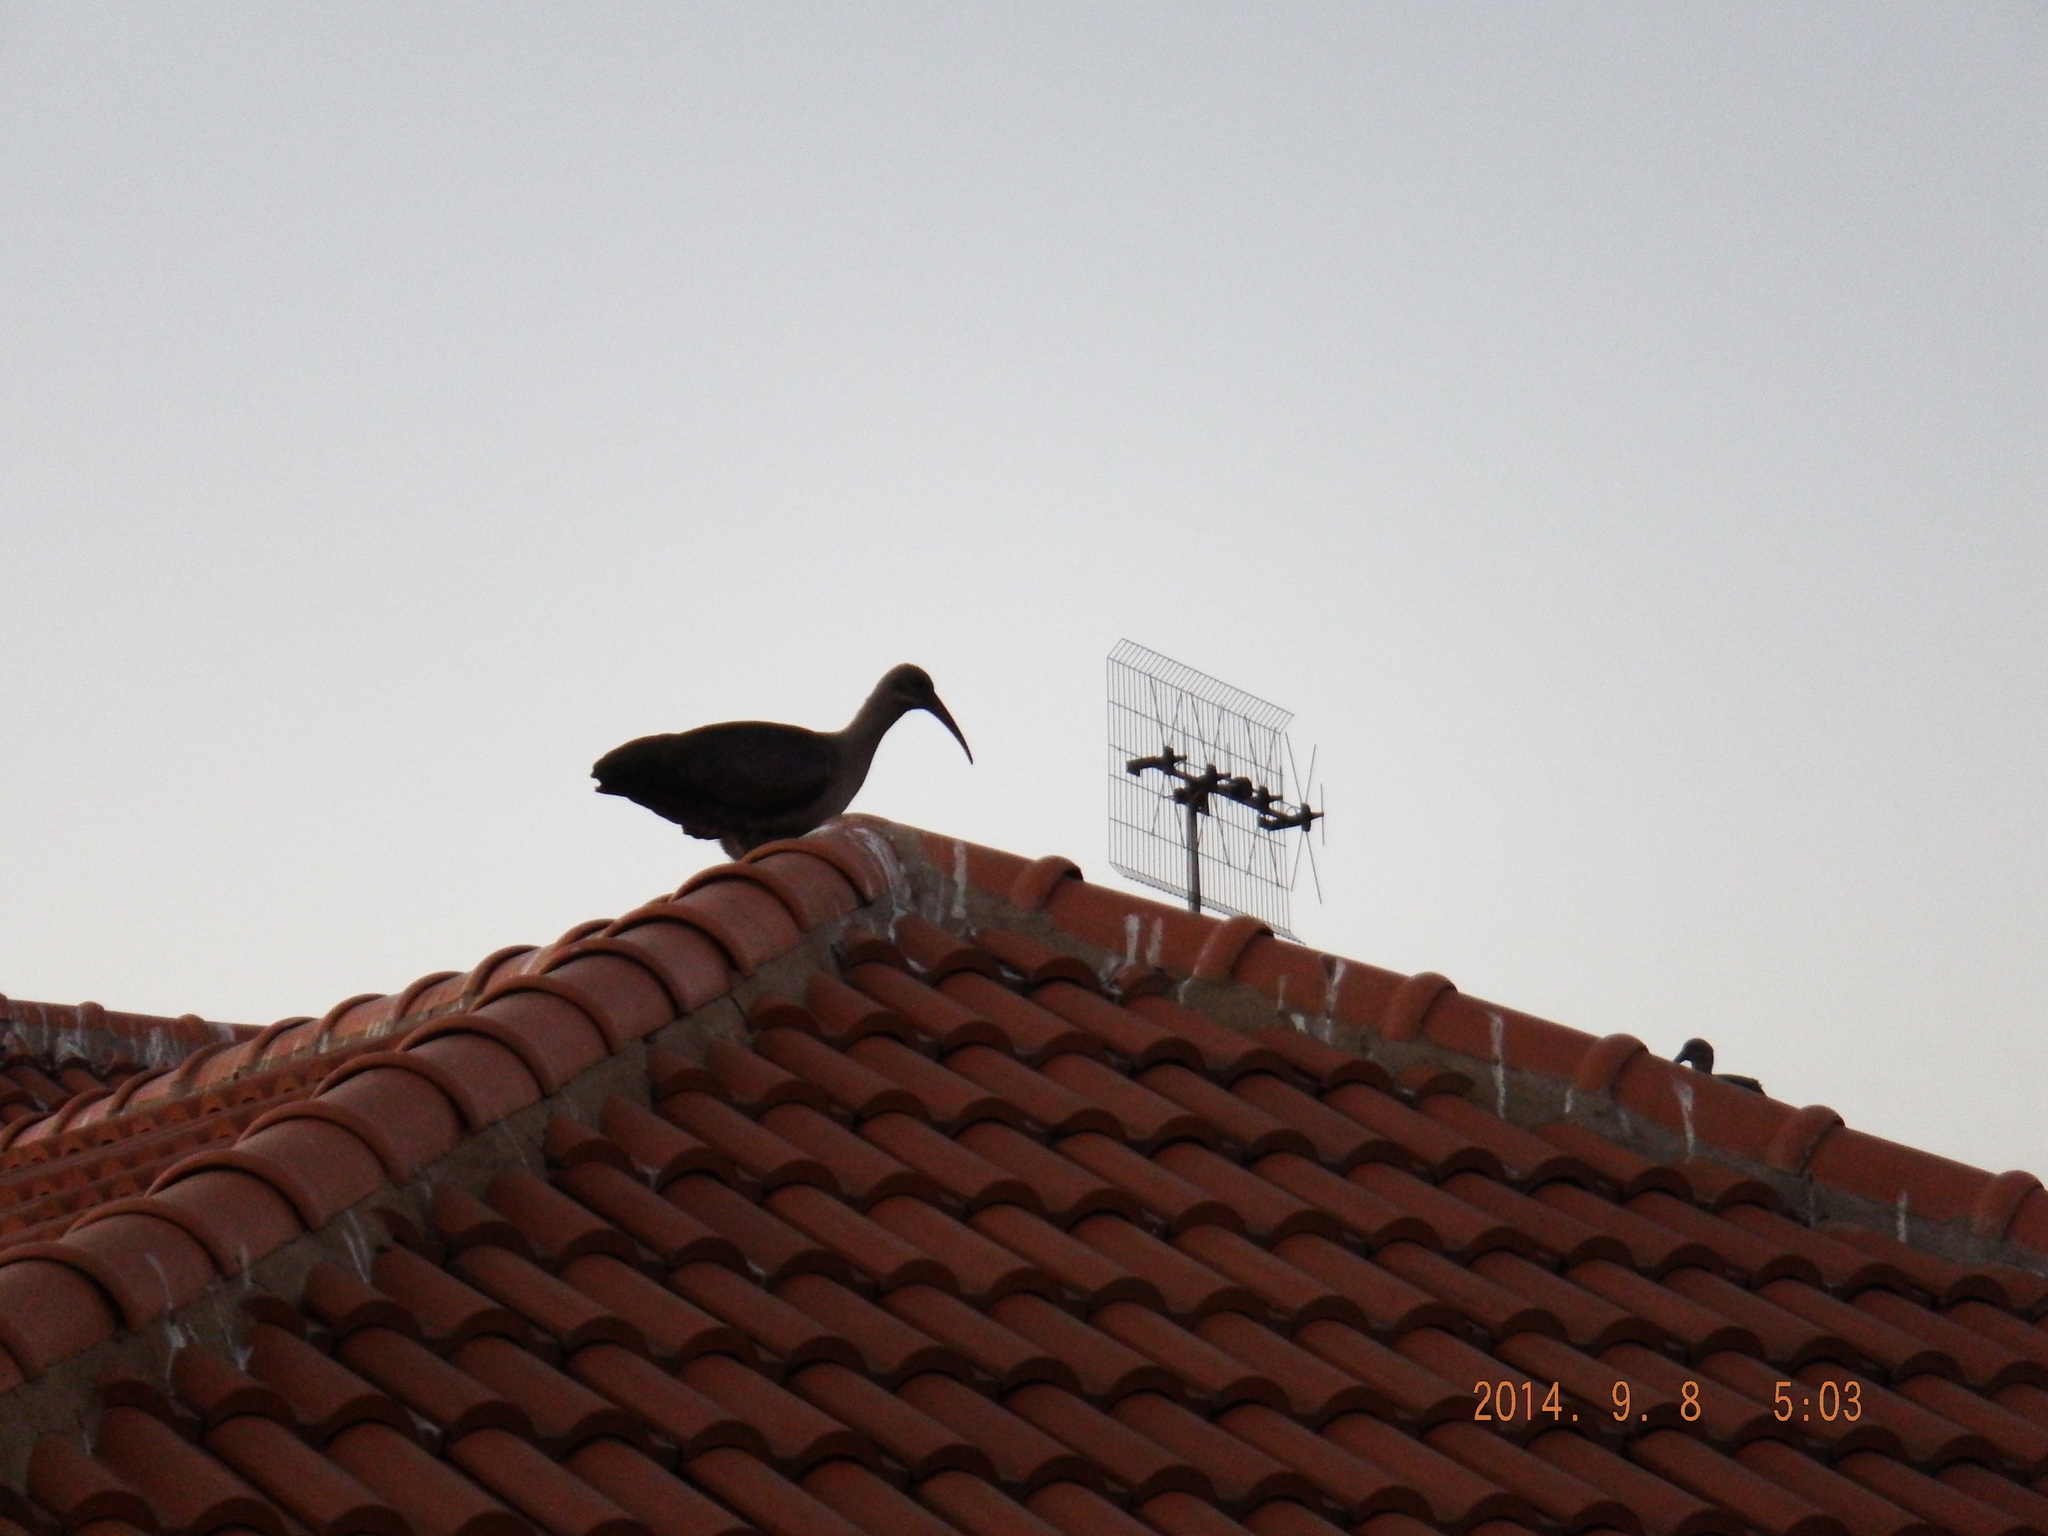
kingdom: Animalia
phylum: Chordata
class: Aves
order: Pelecaniformes
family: Threskiornithidae
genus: Bostrychia
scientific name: Bostrychia hagedash
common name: Hadada ibis
